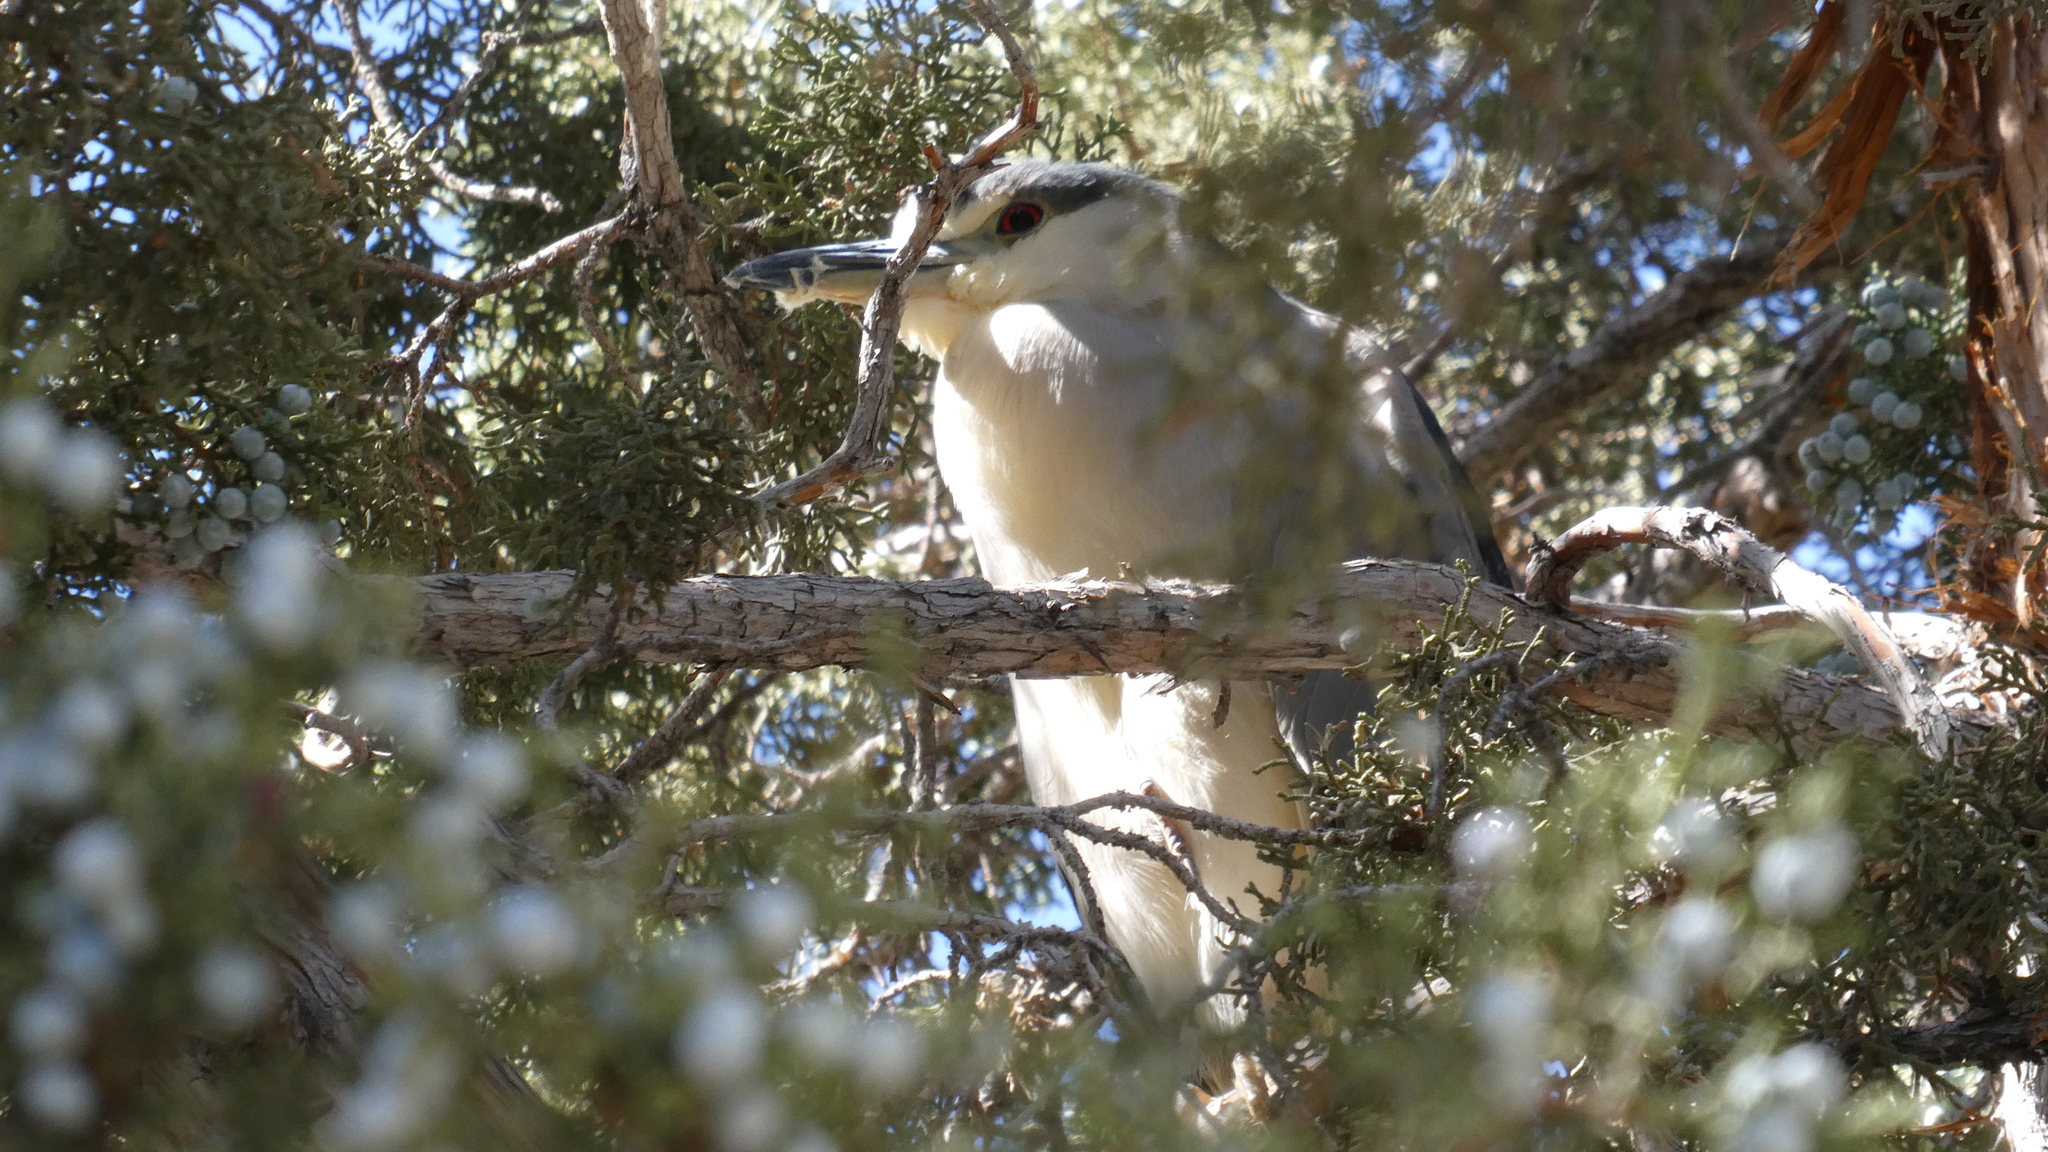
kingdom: Animalia
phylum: Chordata
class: Aves
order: Pelecaniformes
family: Ardeidae
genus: Nycticorax
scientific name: Nycticorax nycticorax
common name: Black-crowned night heron
